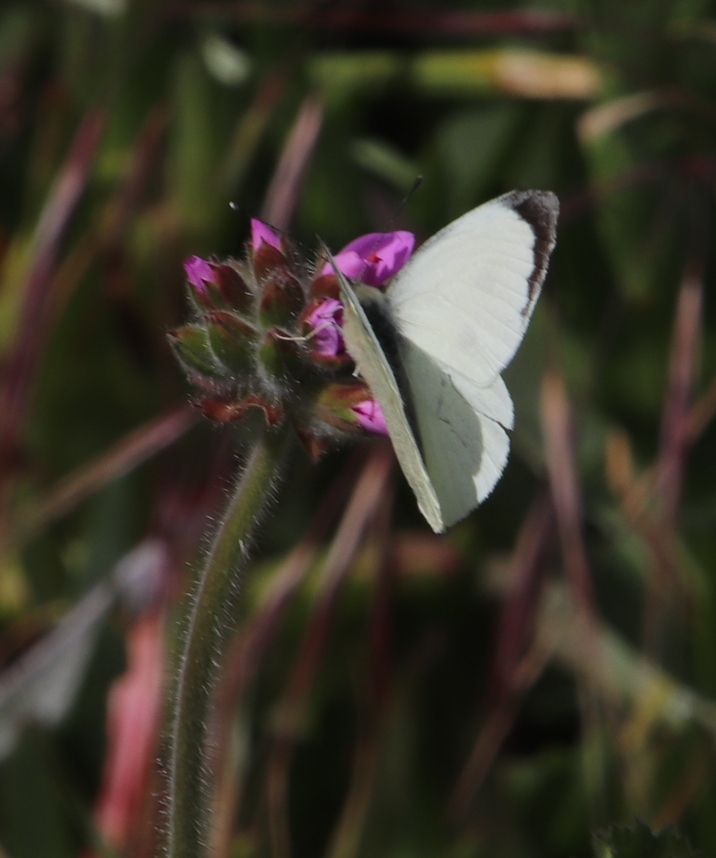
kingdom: Animalia
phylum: Arthropoda
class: Insecta
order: Lepidoptera
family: Pieridae
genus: Pieris
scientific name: Pieris brassicae
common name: Large white
